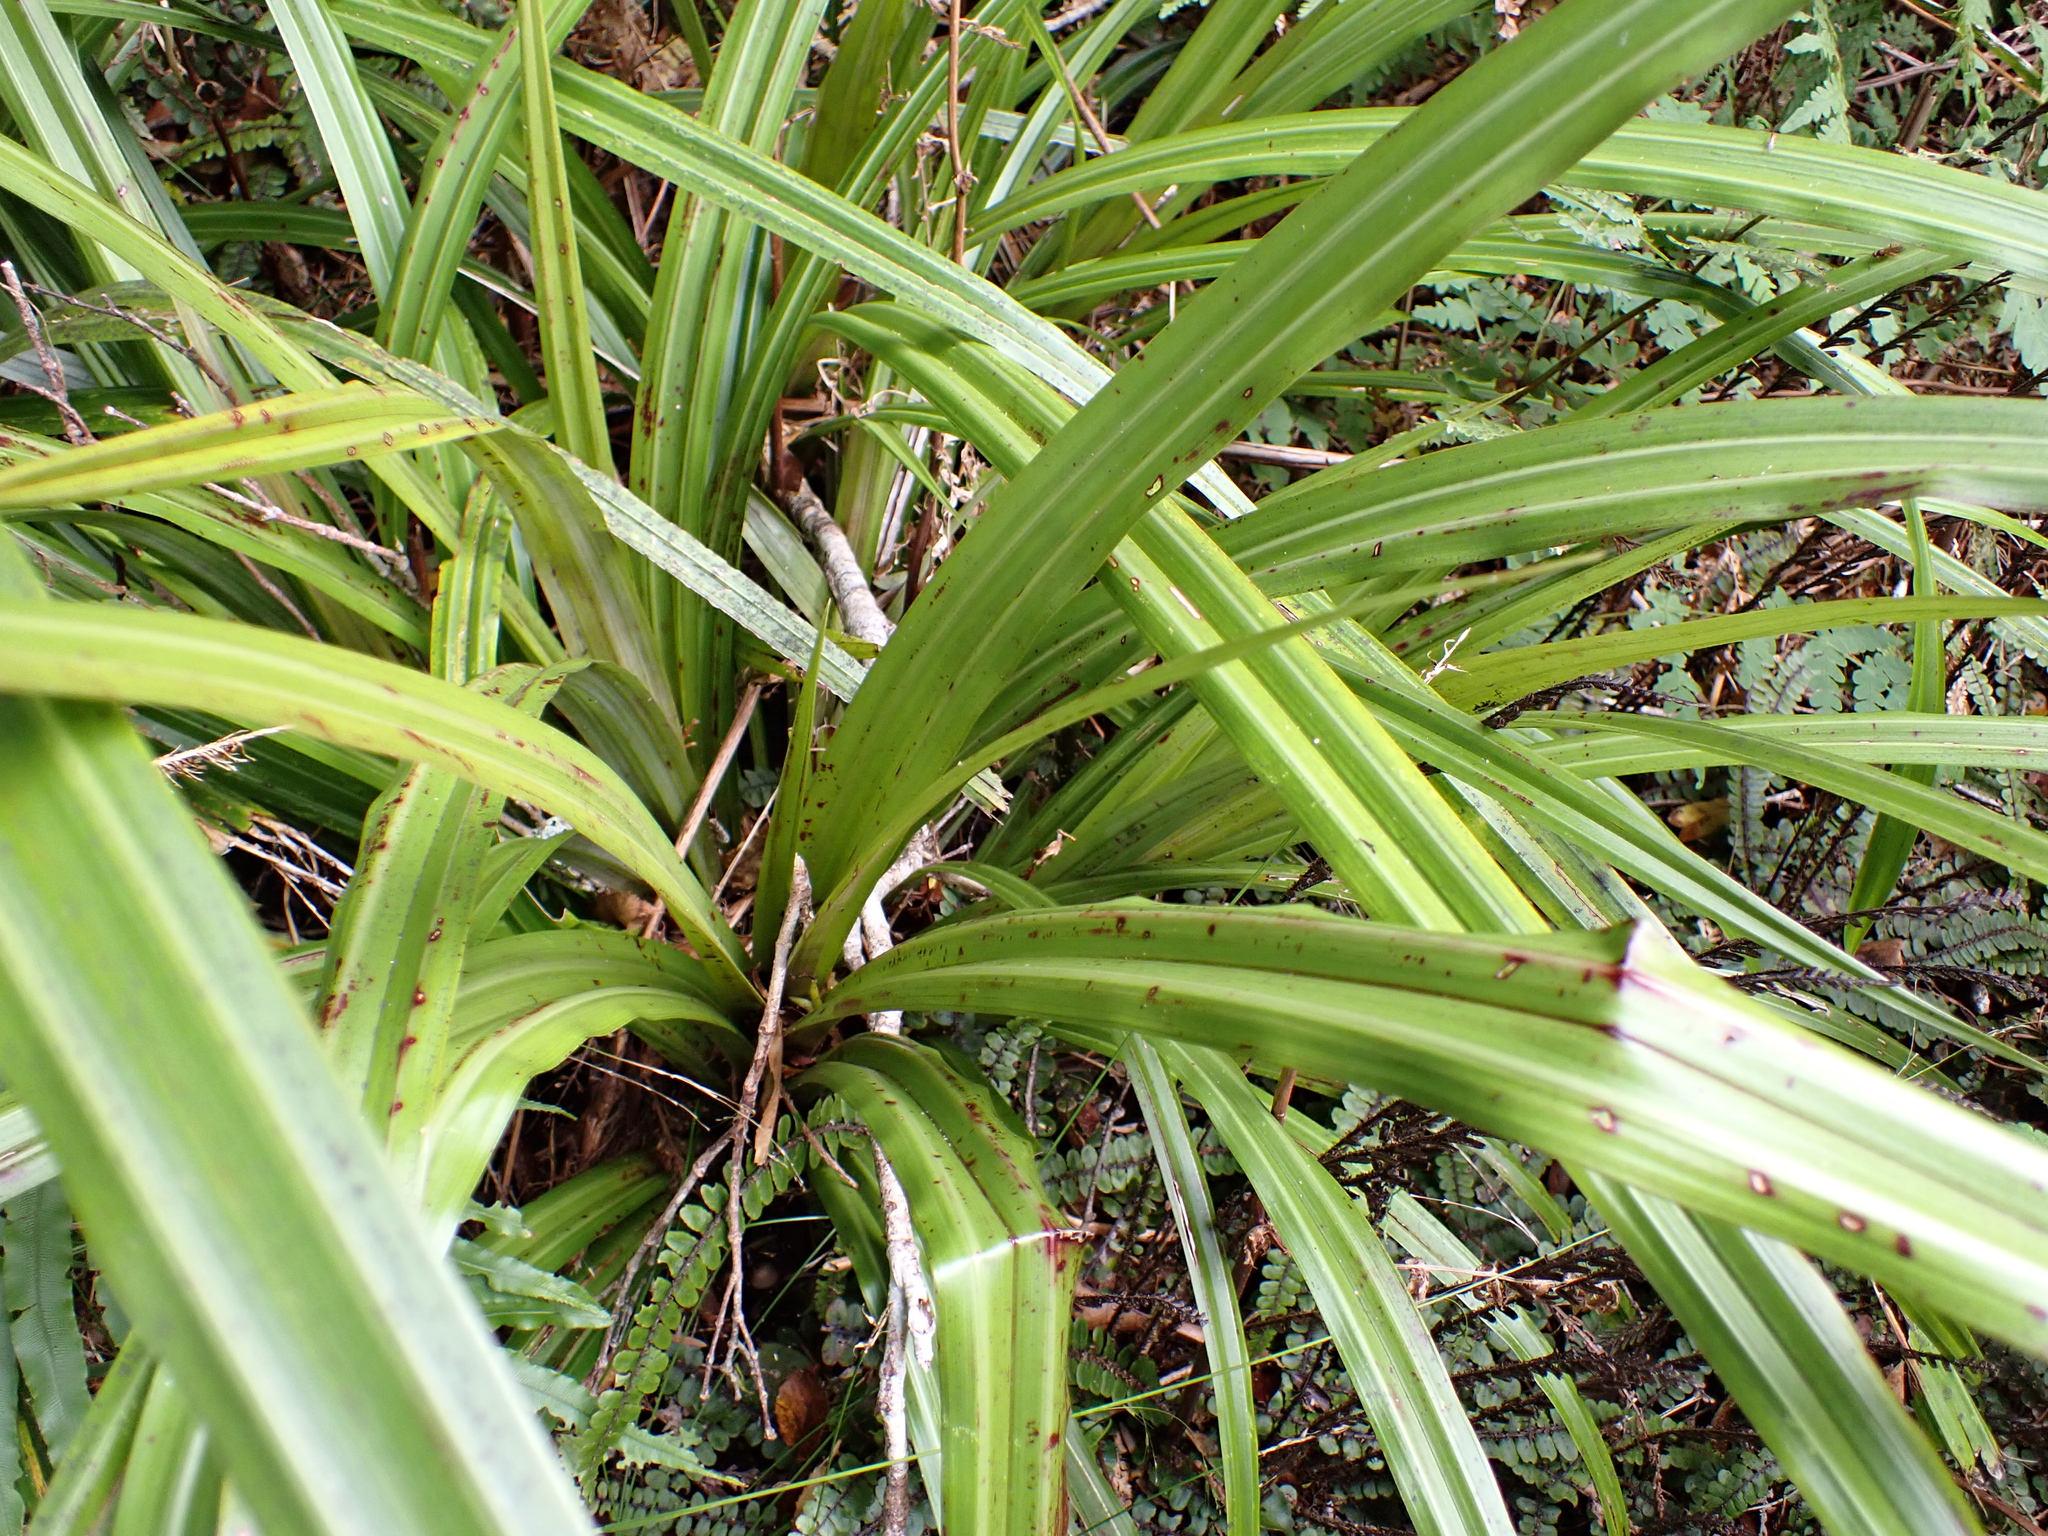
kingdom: Plantae
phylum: Tracheophyta
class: Liliopsida
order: Asparagales
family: Asteliaceae
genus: Astelia
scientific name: Astelia fragrans
